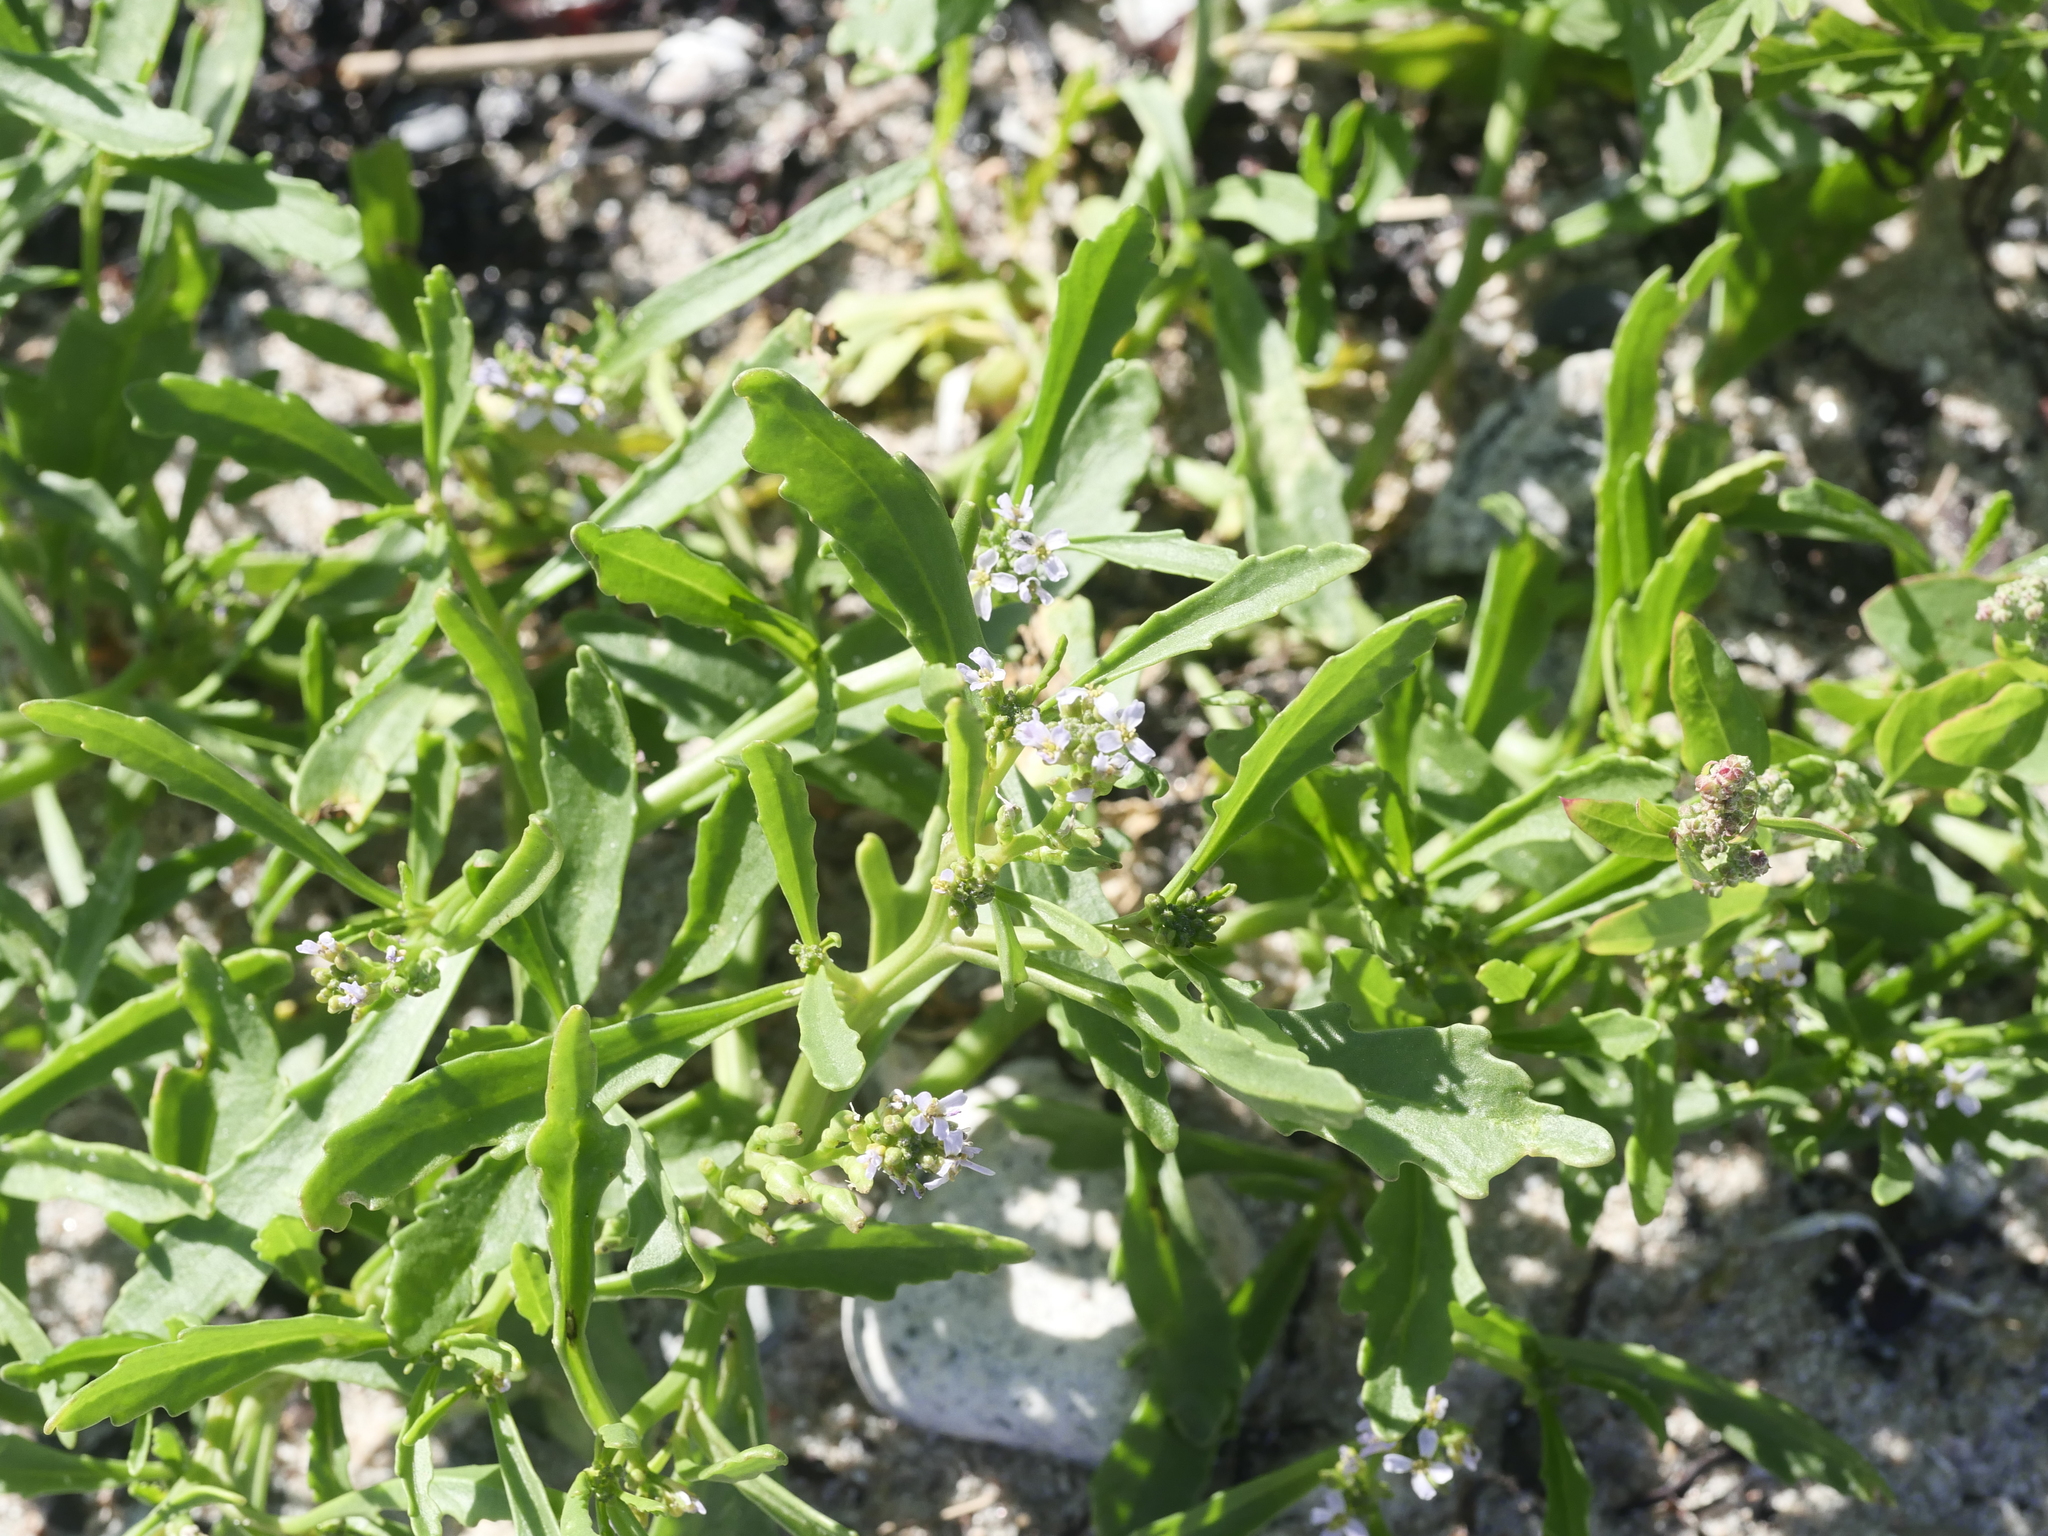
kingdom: Plantae
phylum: Tracheophyta
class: Magnoliopsida
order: Brassicales
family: Brassicaceae
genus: Cakile
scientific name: Cakile edentula
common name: American sea rocket
